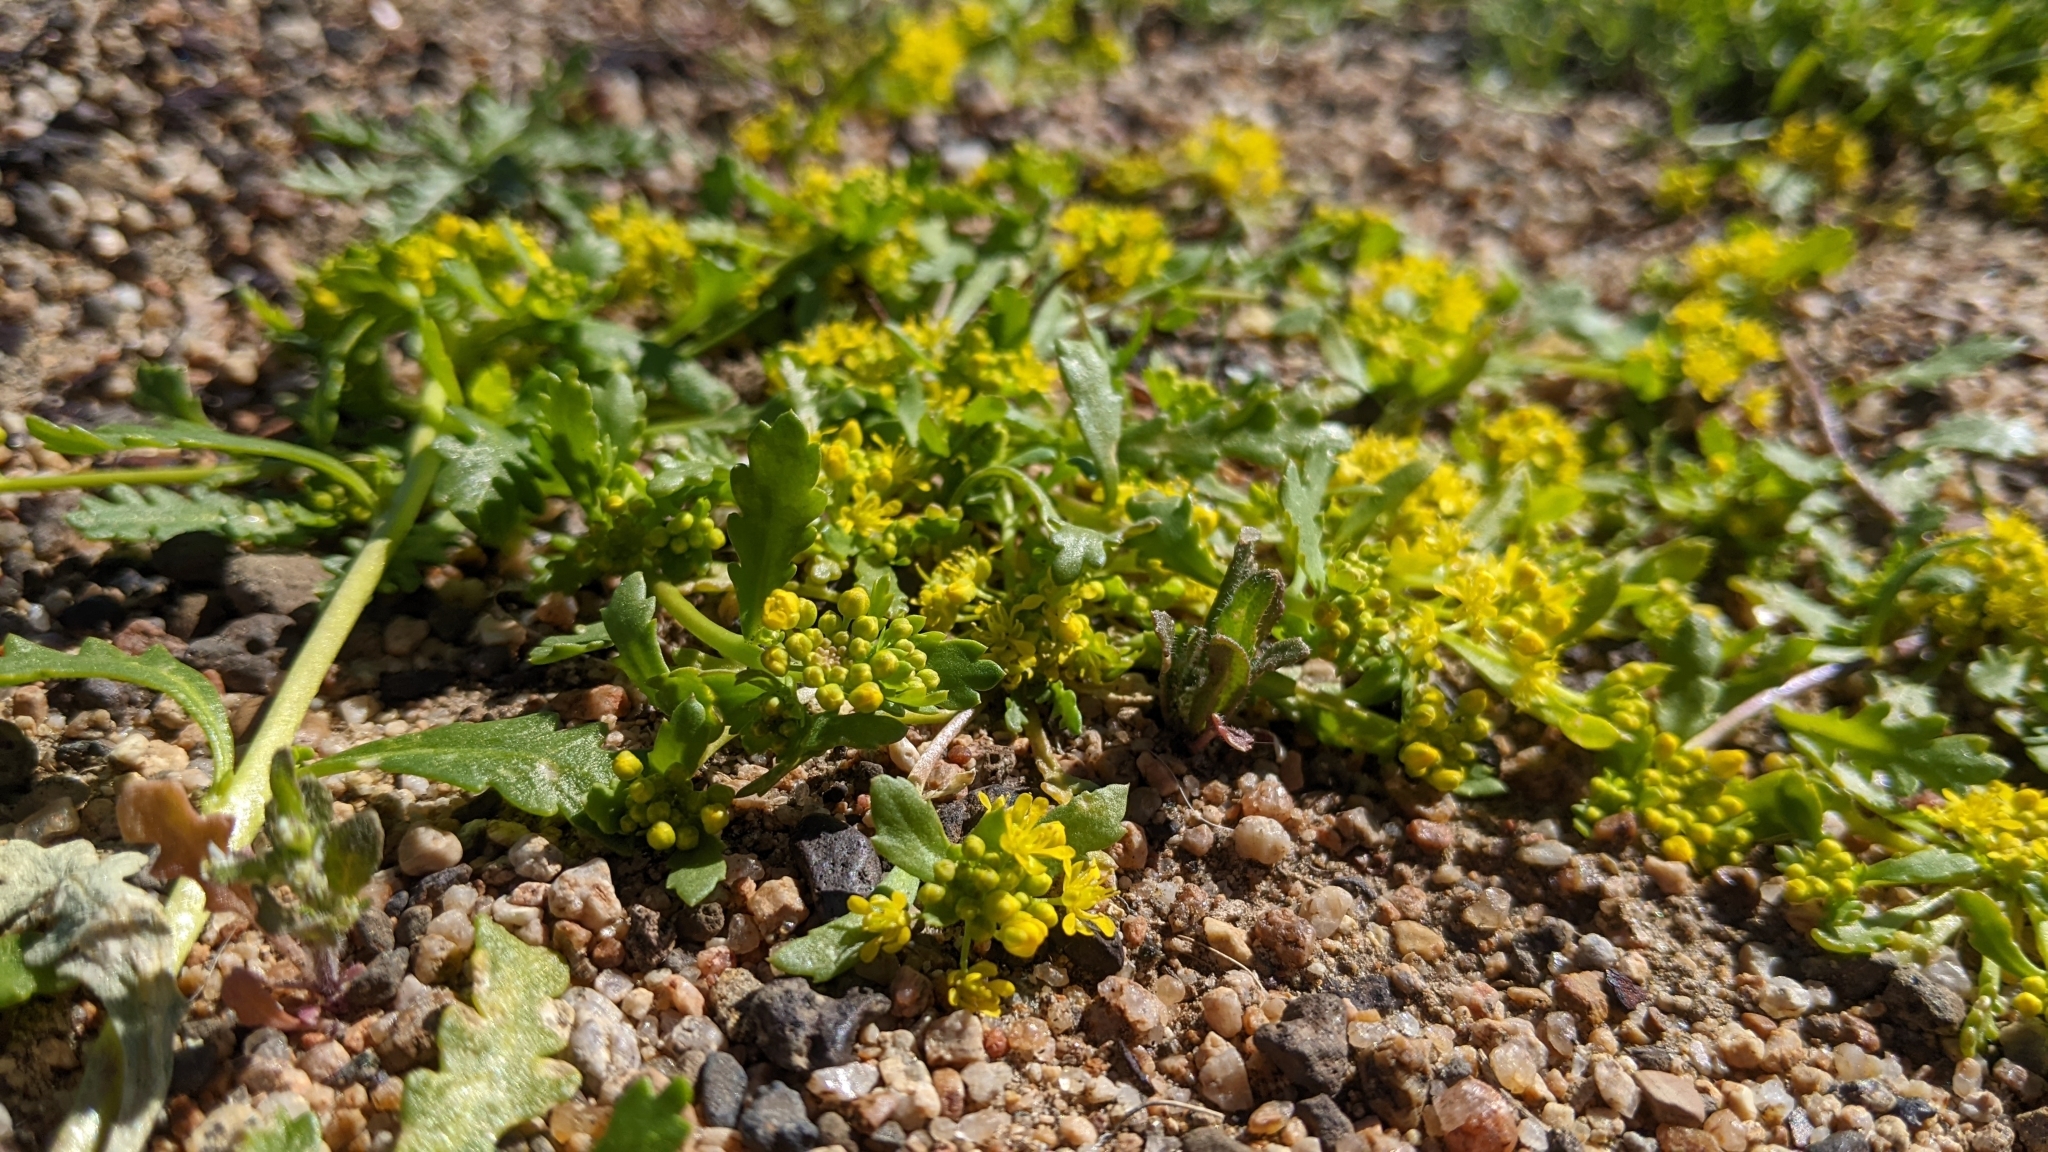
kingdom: Plantae
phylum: Tracheophyta
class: Magnoliopsida
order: Brassicales
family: Brassicaceae
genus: Lepidium
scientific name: Lepidium flavum
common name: Yellow pepperwort
